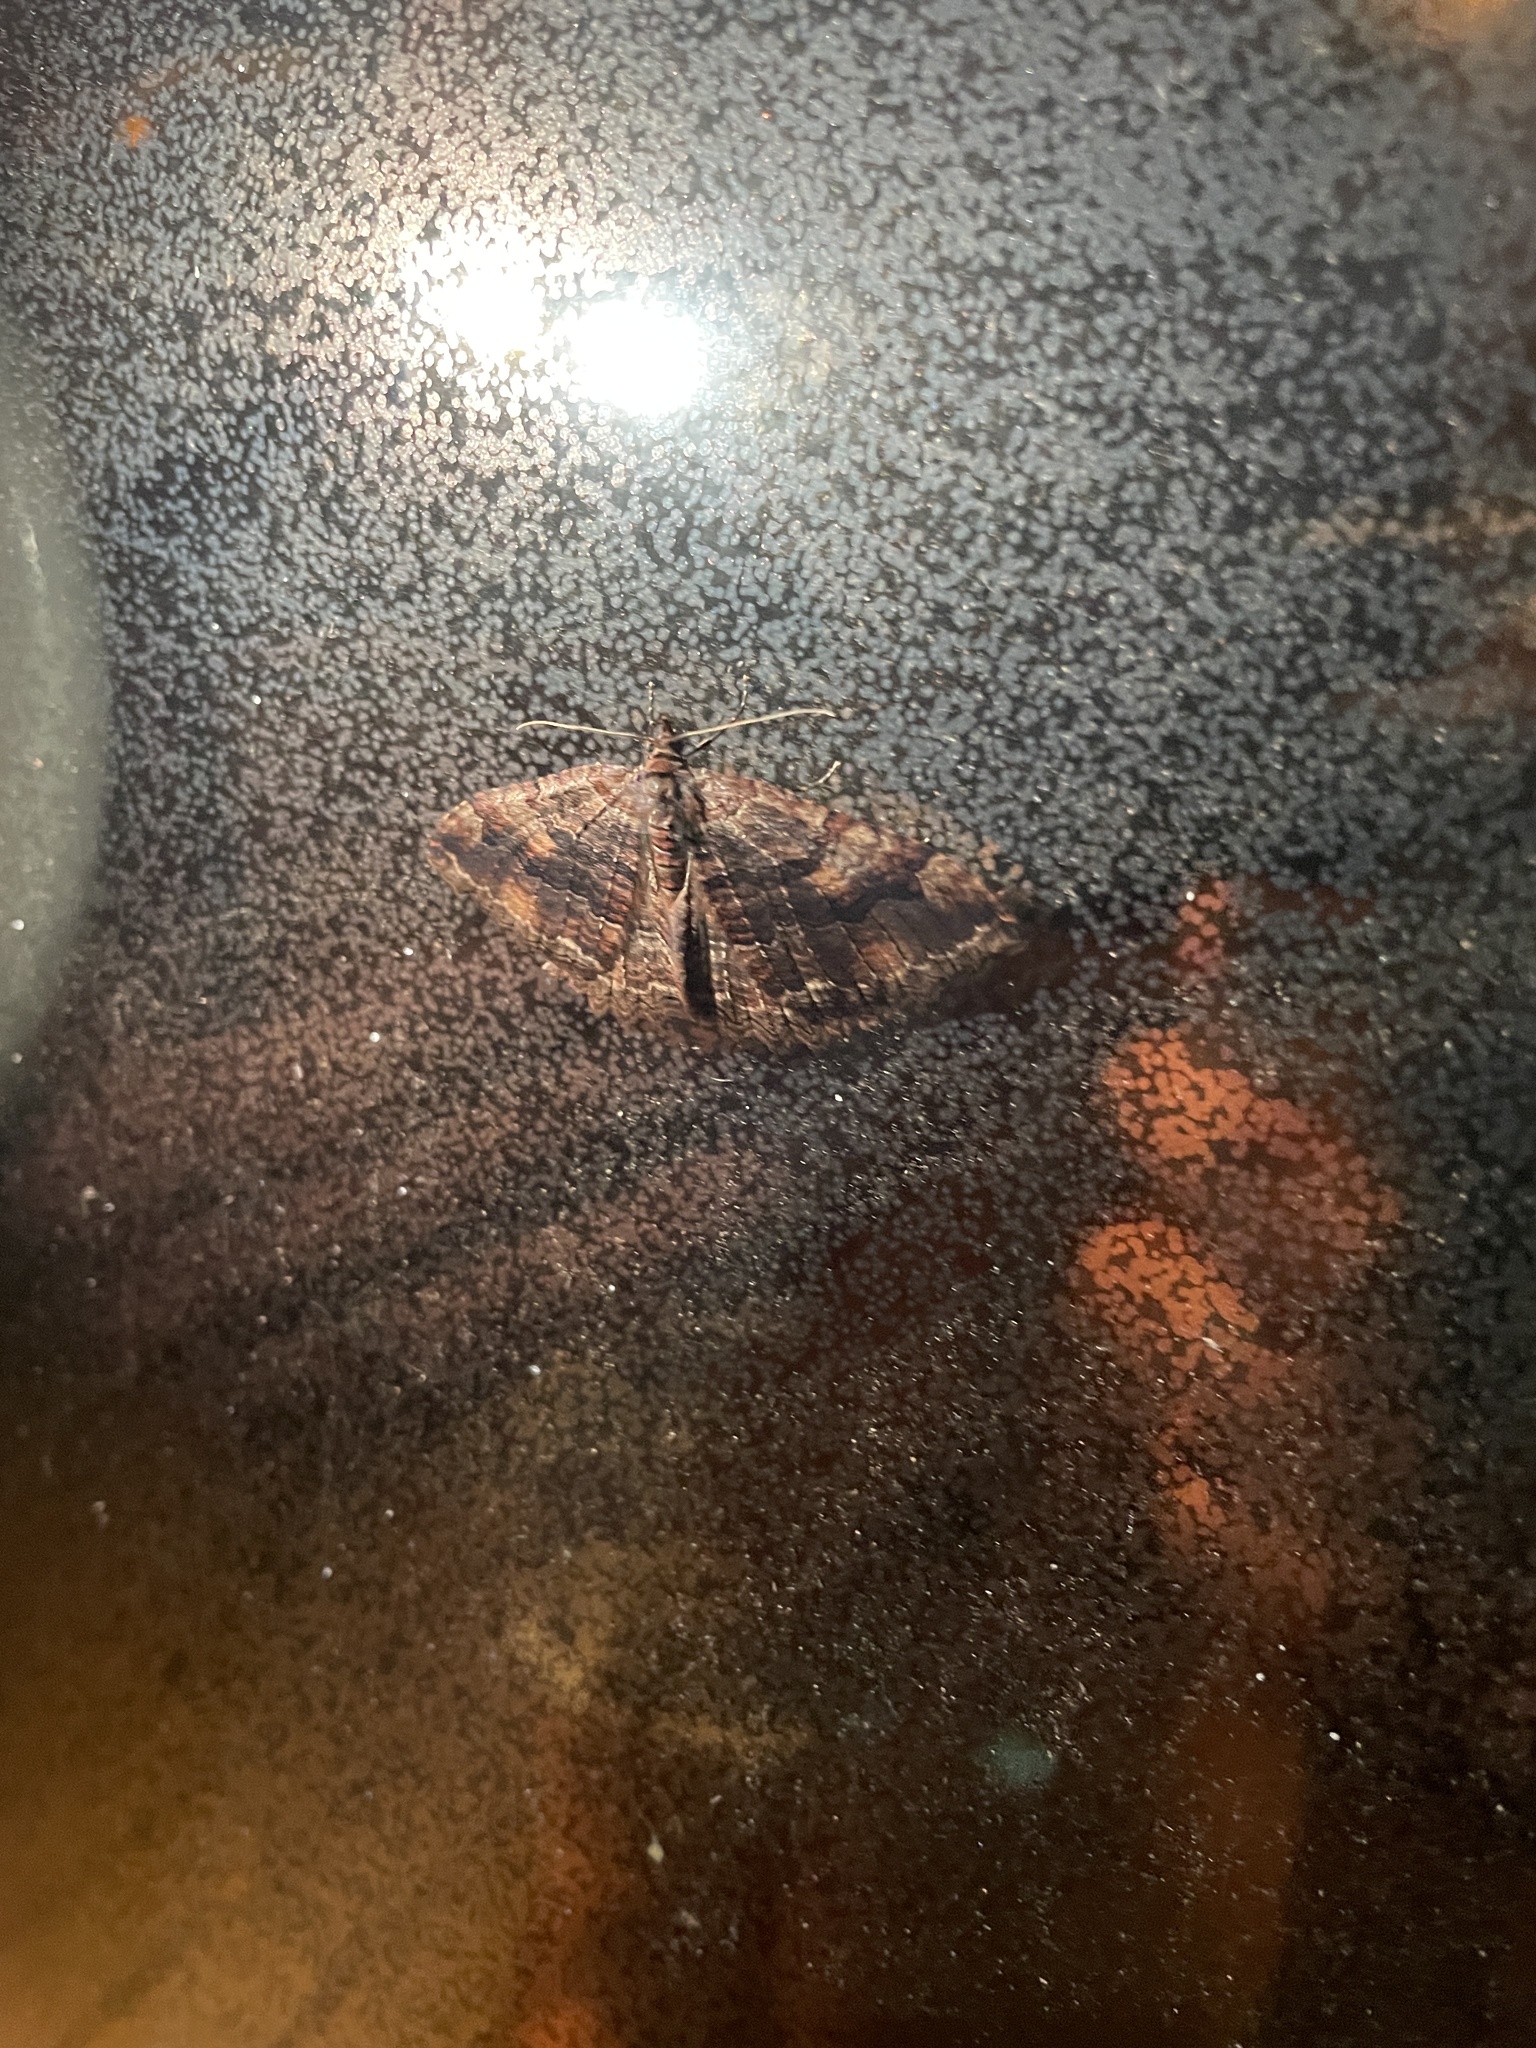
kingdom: Animalia
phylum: Arthropoda
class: Insecta
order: Lepidoptera
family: Geometridae
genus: Triphosa
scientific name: Triphosa haesitata
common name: Tissue moth
